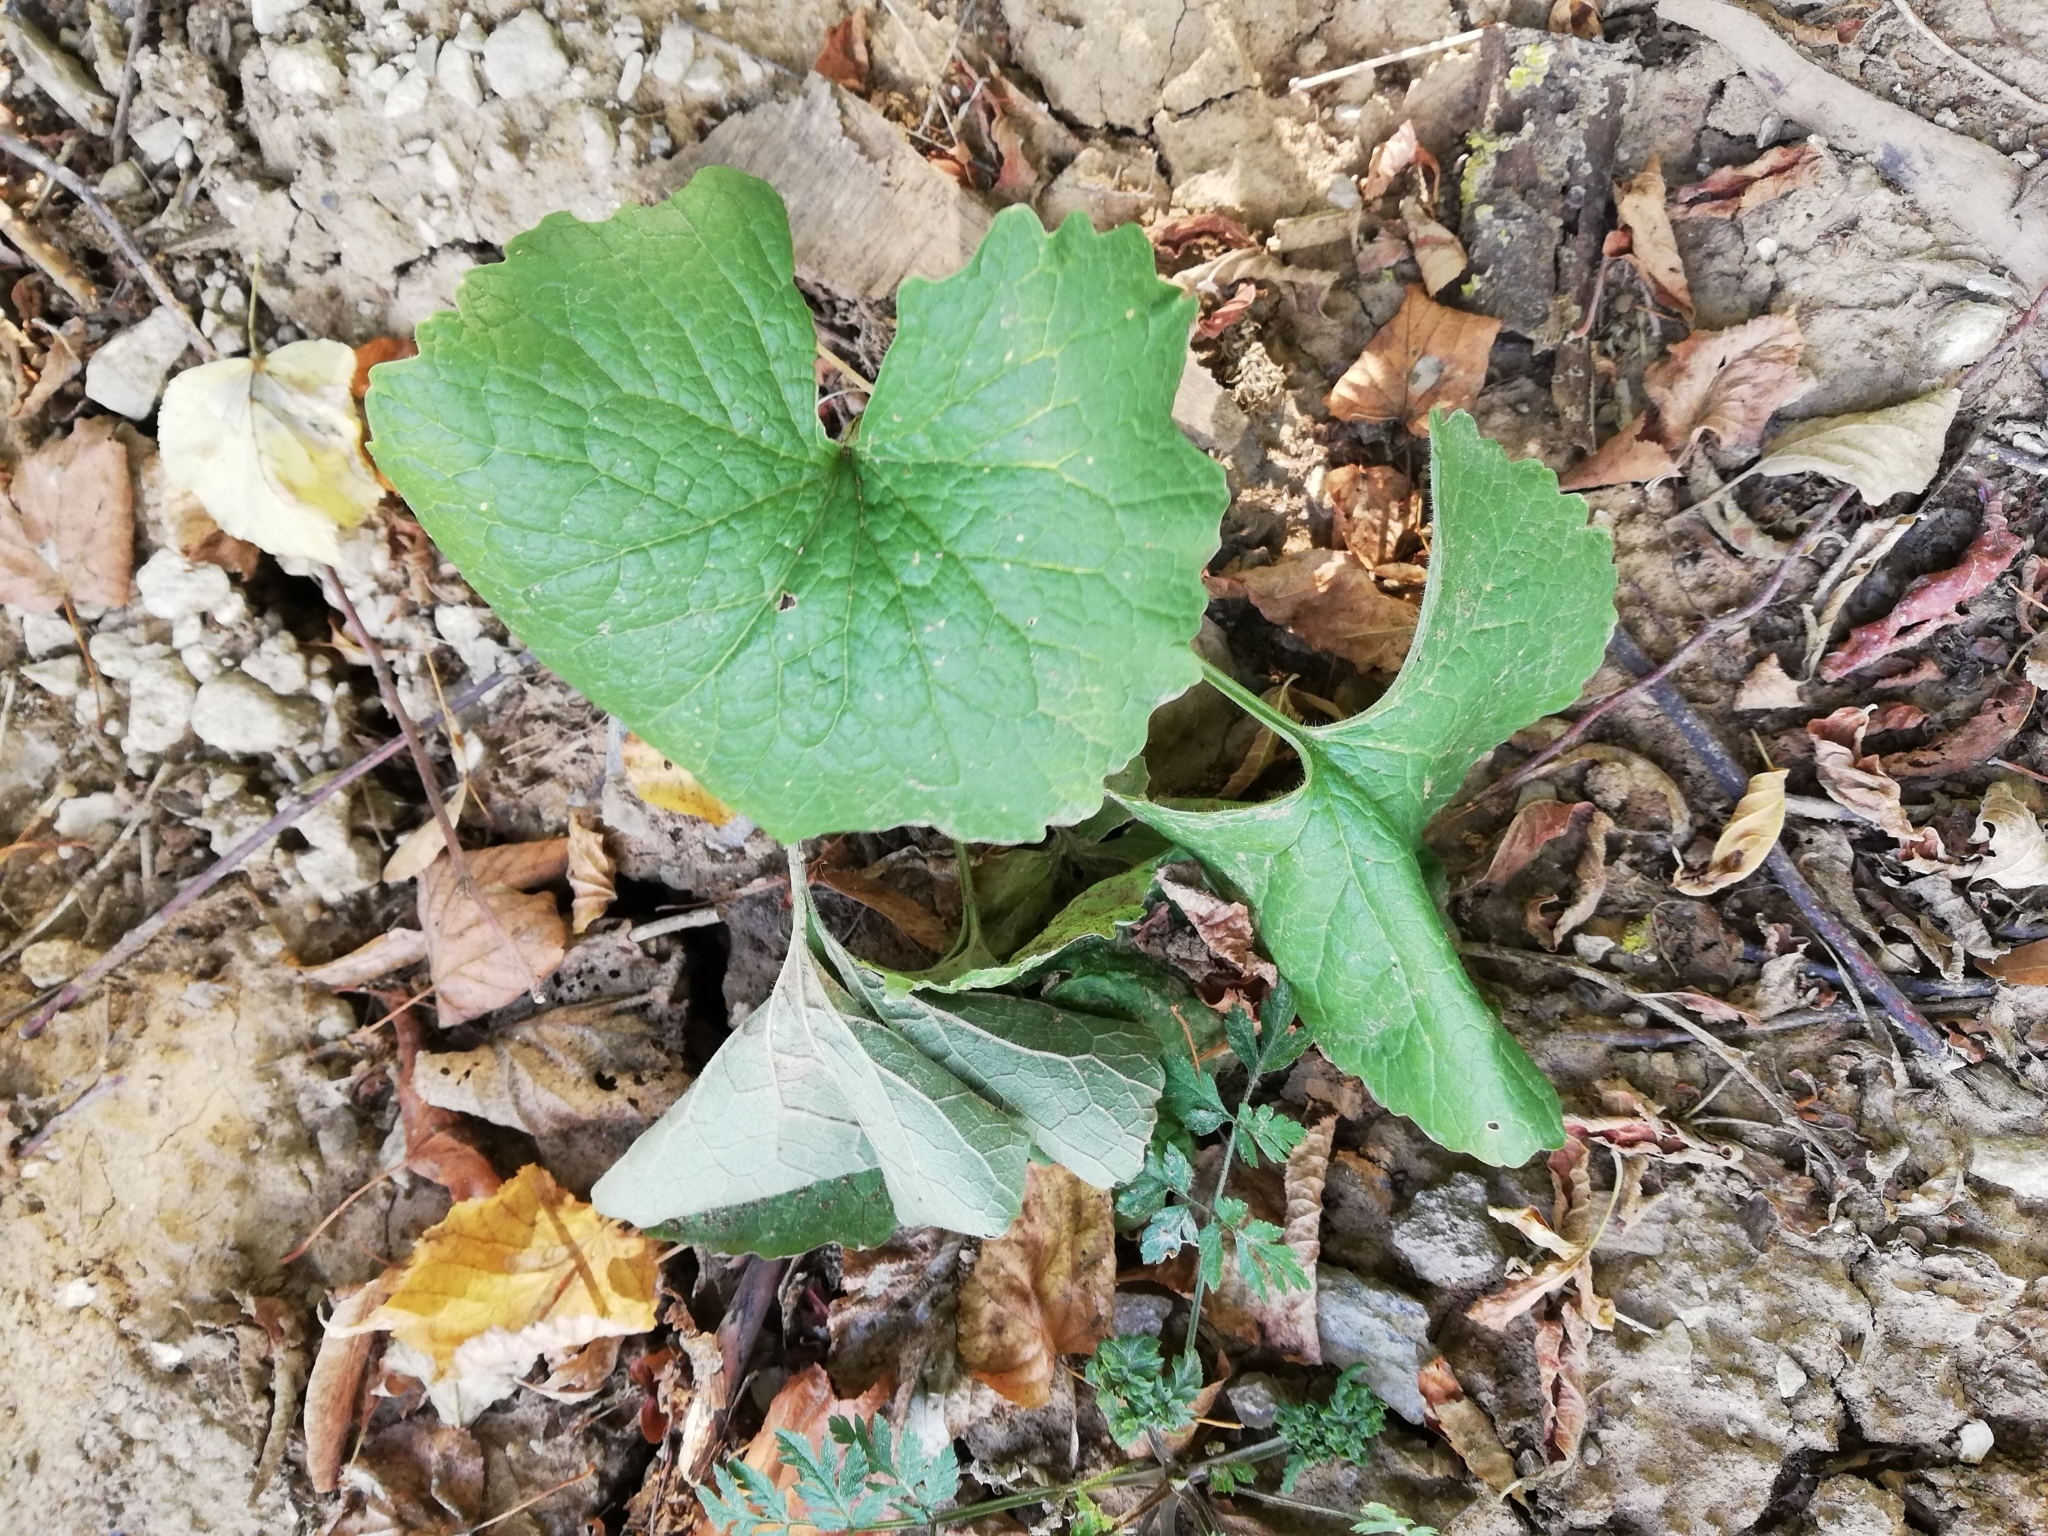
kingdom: Plantae
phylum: Tracheophyta
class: Magnoliopsida
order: Brassicales
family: Brassicaceae
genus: Alliaria
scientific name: Alliaria petiolata
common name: Garlic mustard
